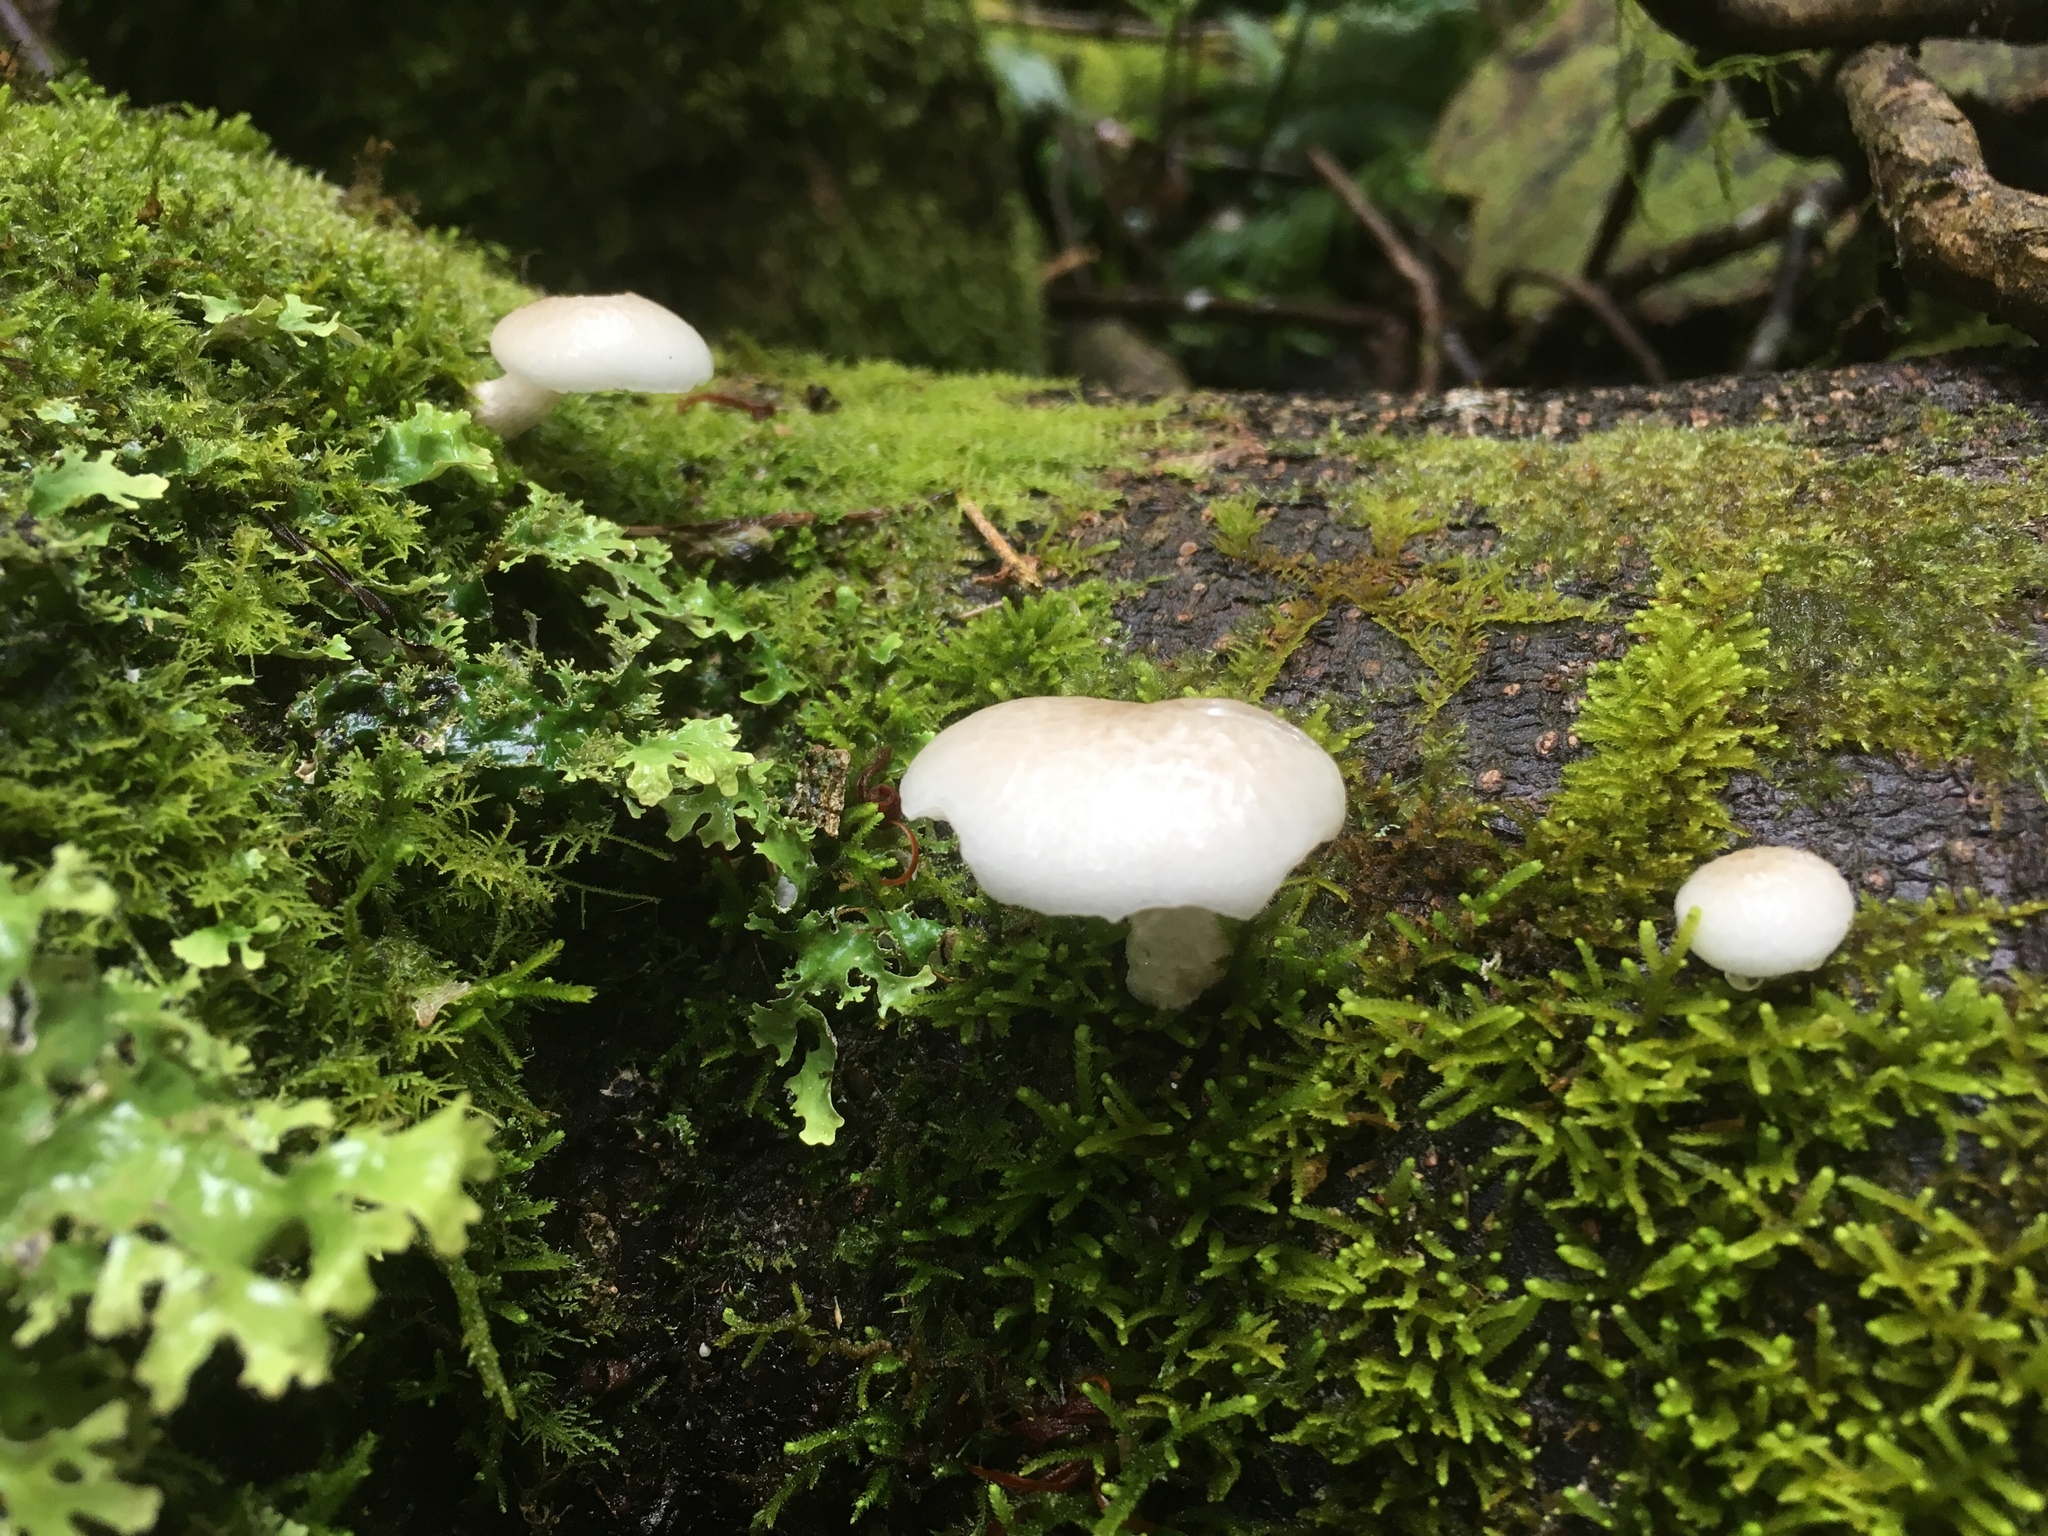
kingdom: Fungi
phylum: Basidiomycota
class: Agaricomycetes
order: Agaricales
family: Physalacriaceae
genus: Oudemansiella
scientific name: Oudemansiella australis
